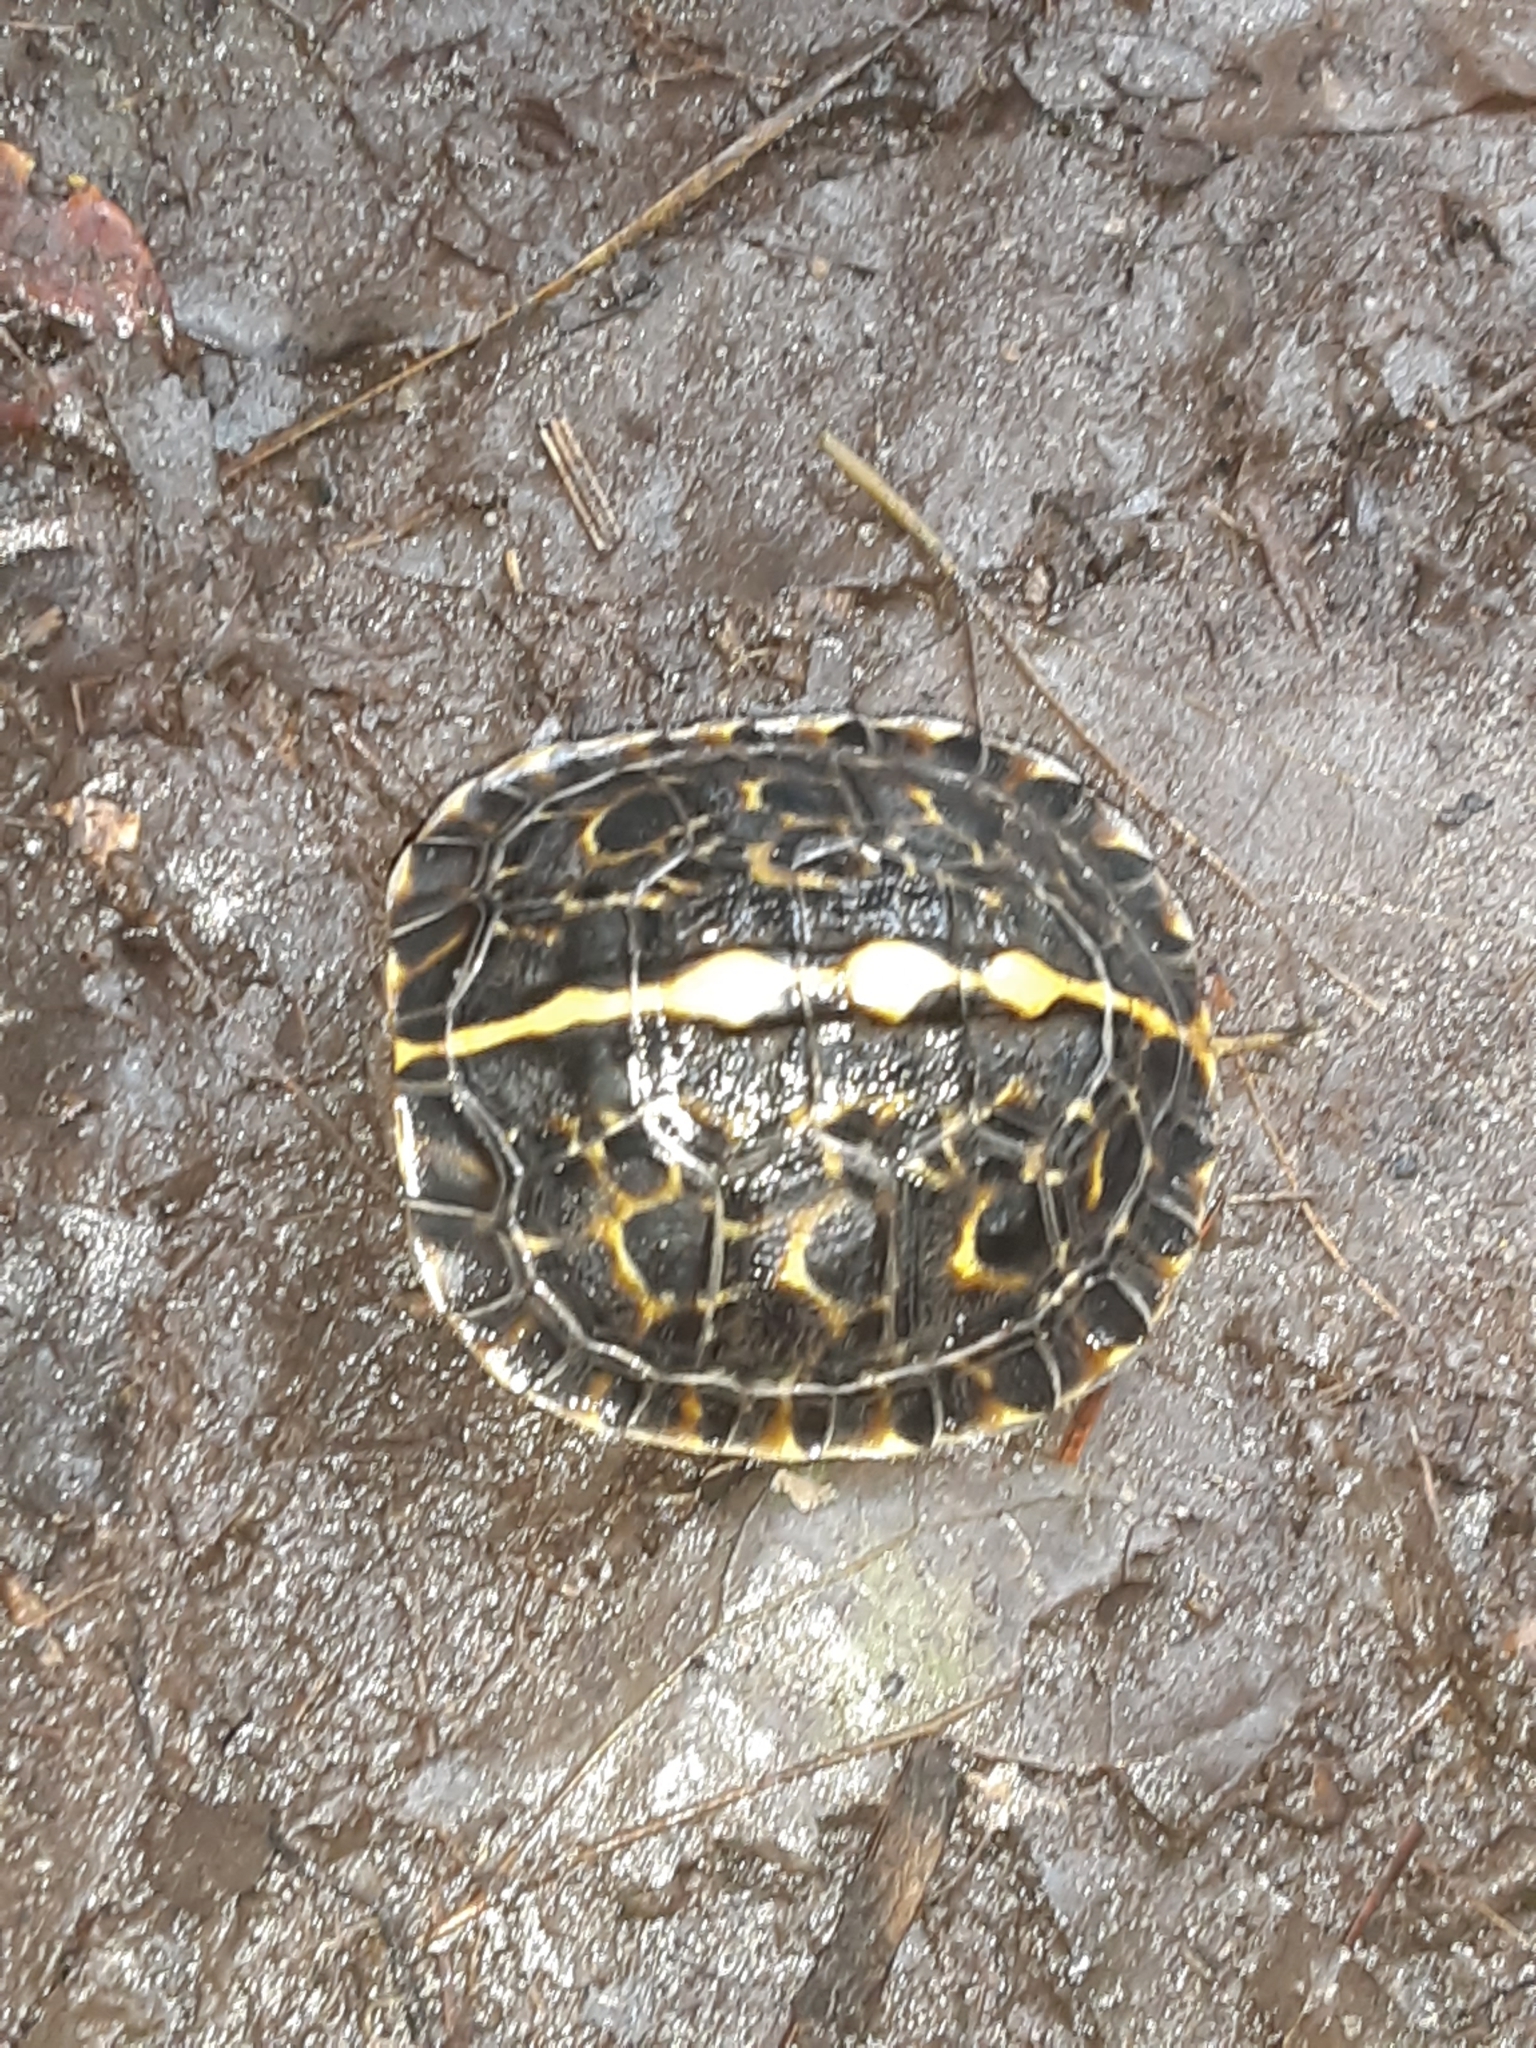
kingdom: Animalia
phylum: Chordata
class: Testudines
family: Emydidae
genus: Terrapene
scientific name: Terrapene carolina
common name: Common box turtle
